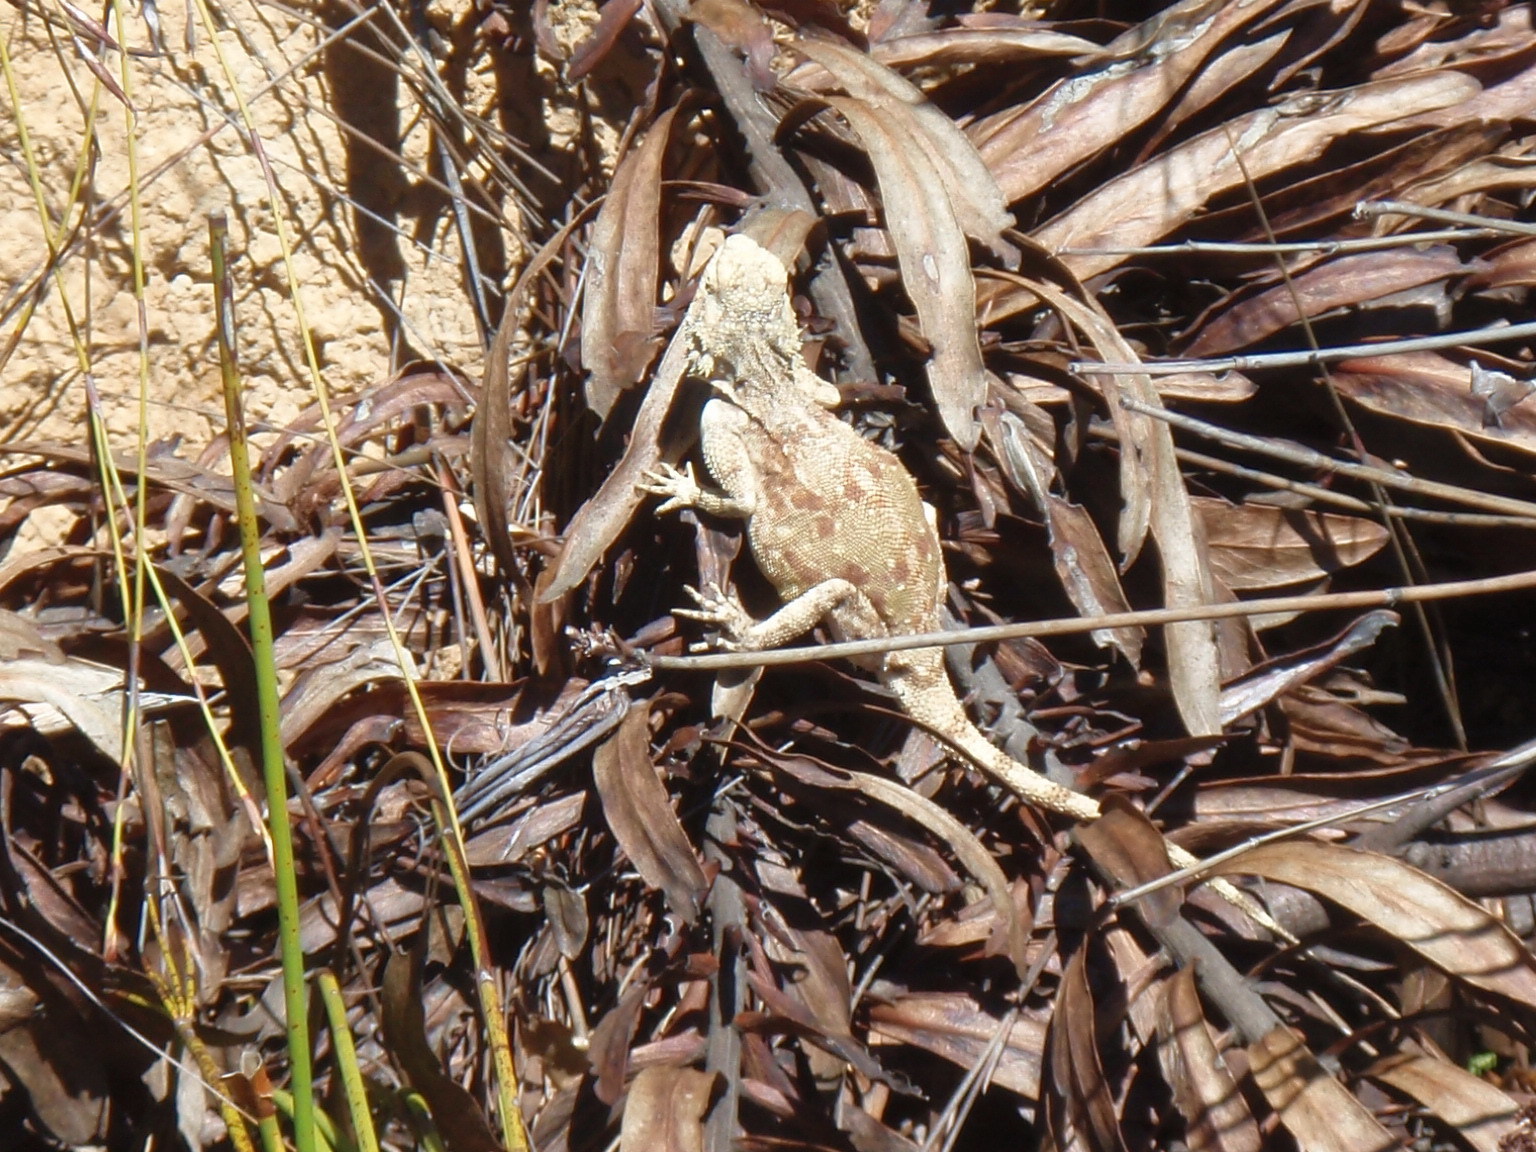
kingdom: Animalia
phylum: Chordata
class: Squamata
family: Agamidae
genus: Agama
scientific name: Agama atra
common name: Southern african rock agama
